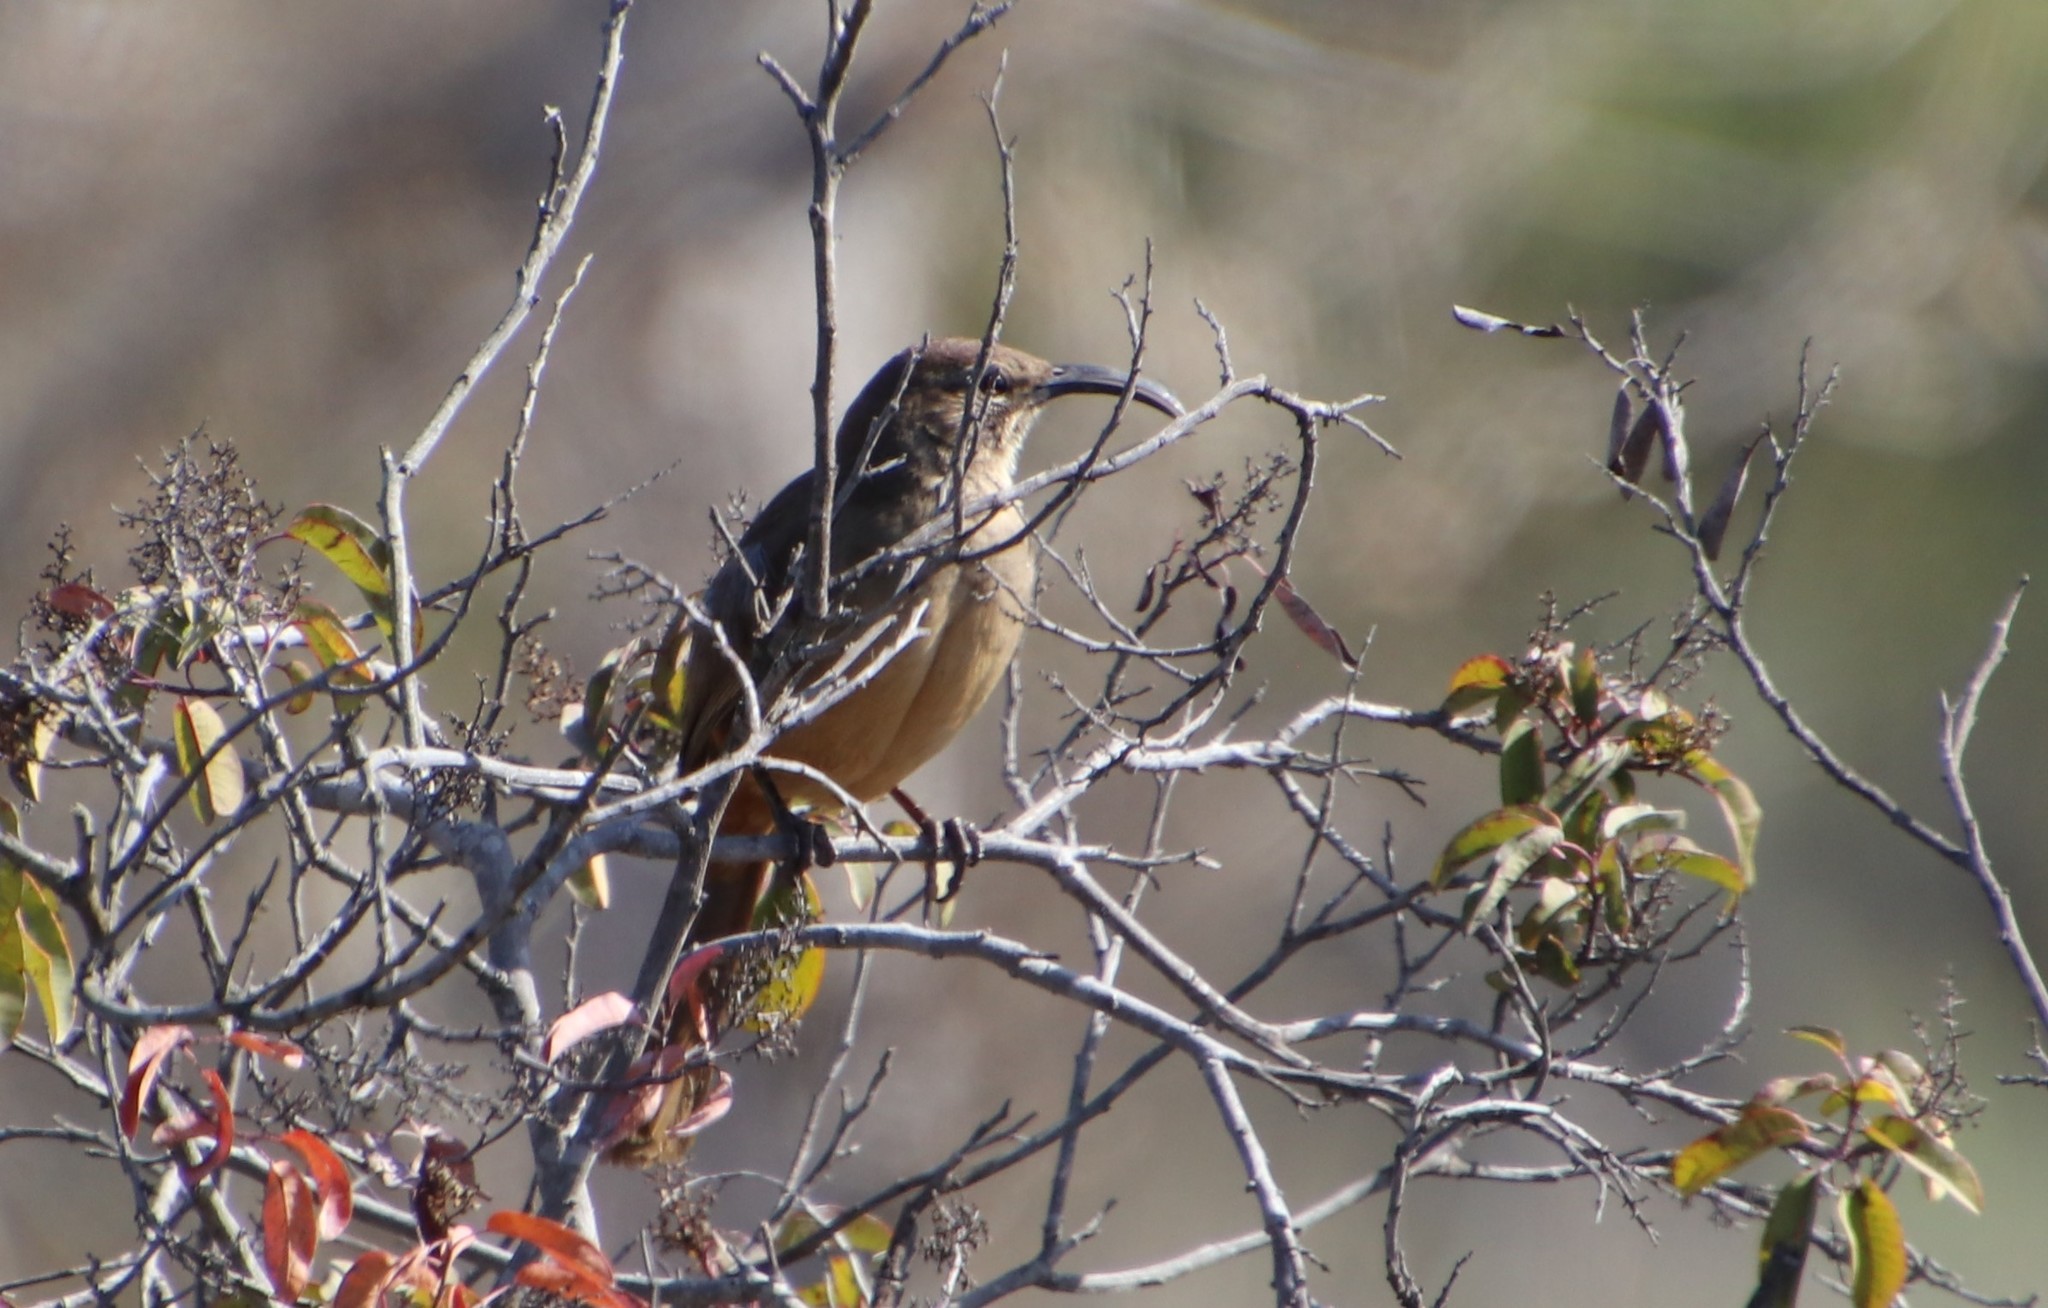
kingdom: Animalia
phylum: Chordata
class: Aves
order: Passeriformes
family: Mimidae
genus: Toxostoma
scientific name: Toxostoma redivivum
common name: California thrasher
